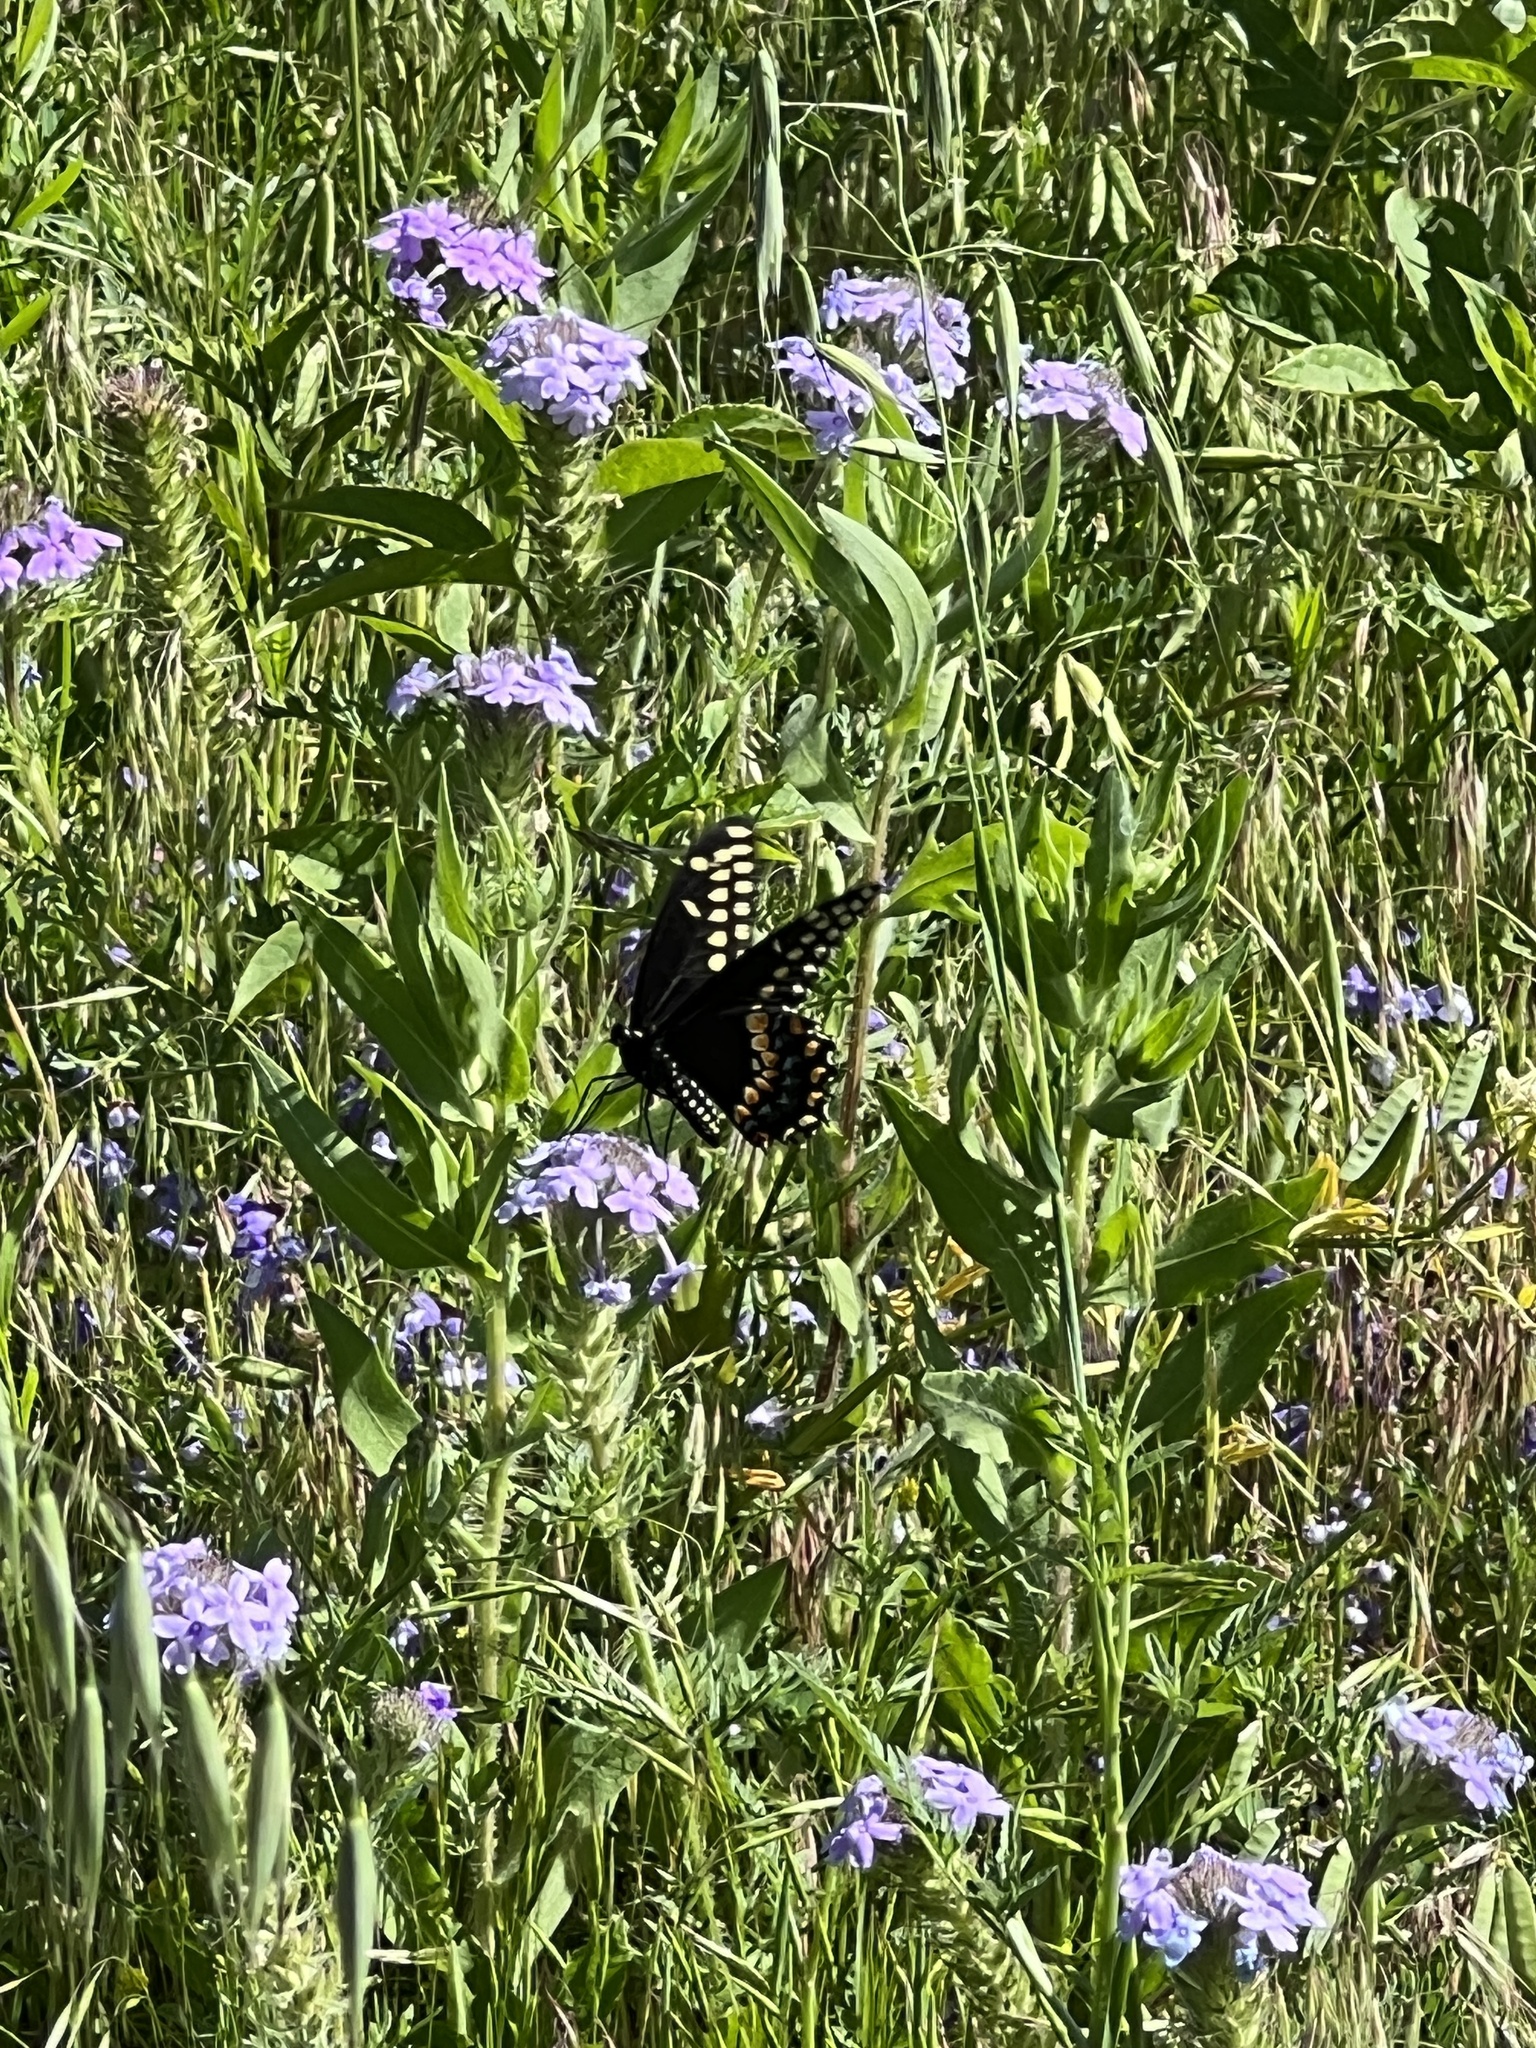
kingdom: Animalia
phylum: Arthropoda
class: Insecta
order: Lepidoptera
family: Papilionidae
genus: Papilio
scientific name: Papilio polyxenes
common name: Black swallowtail
